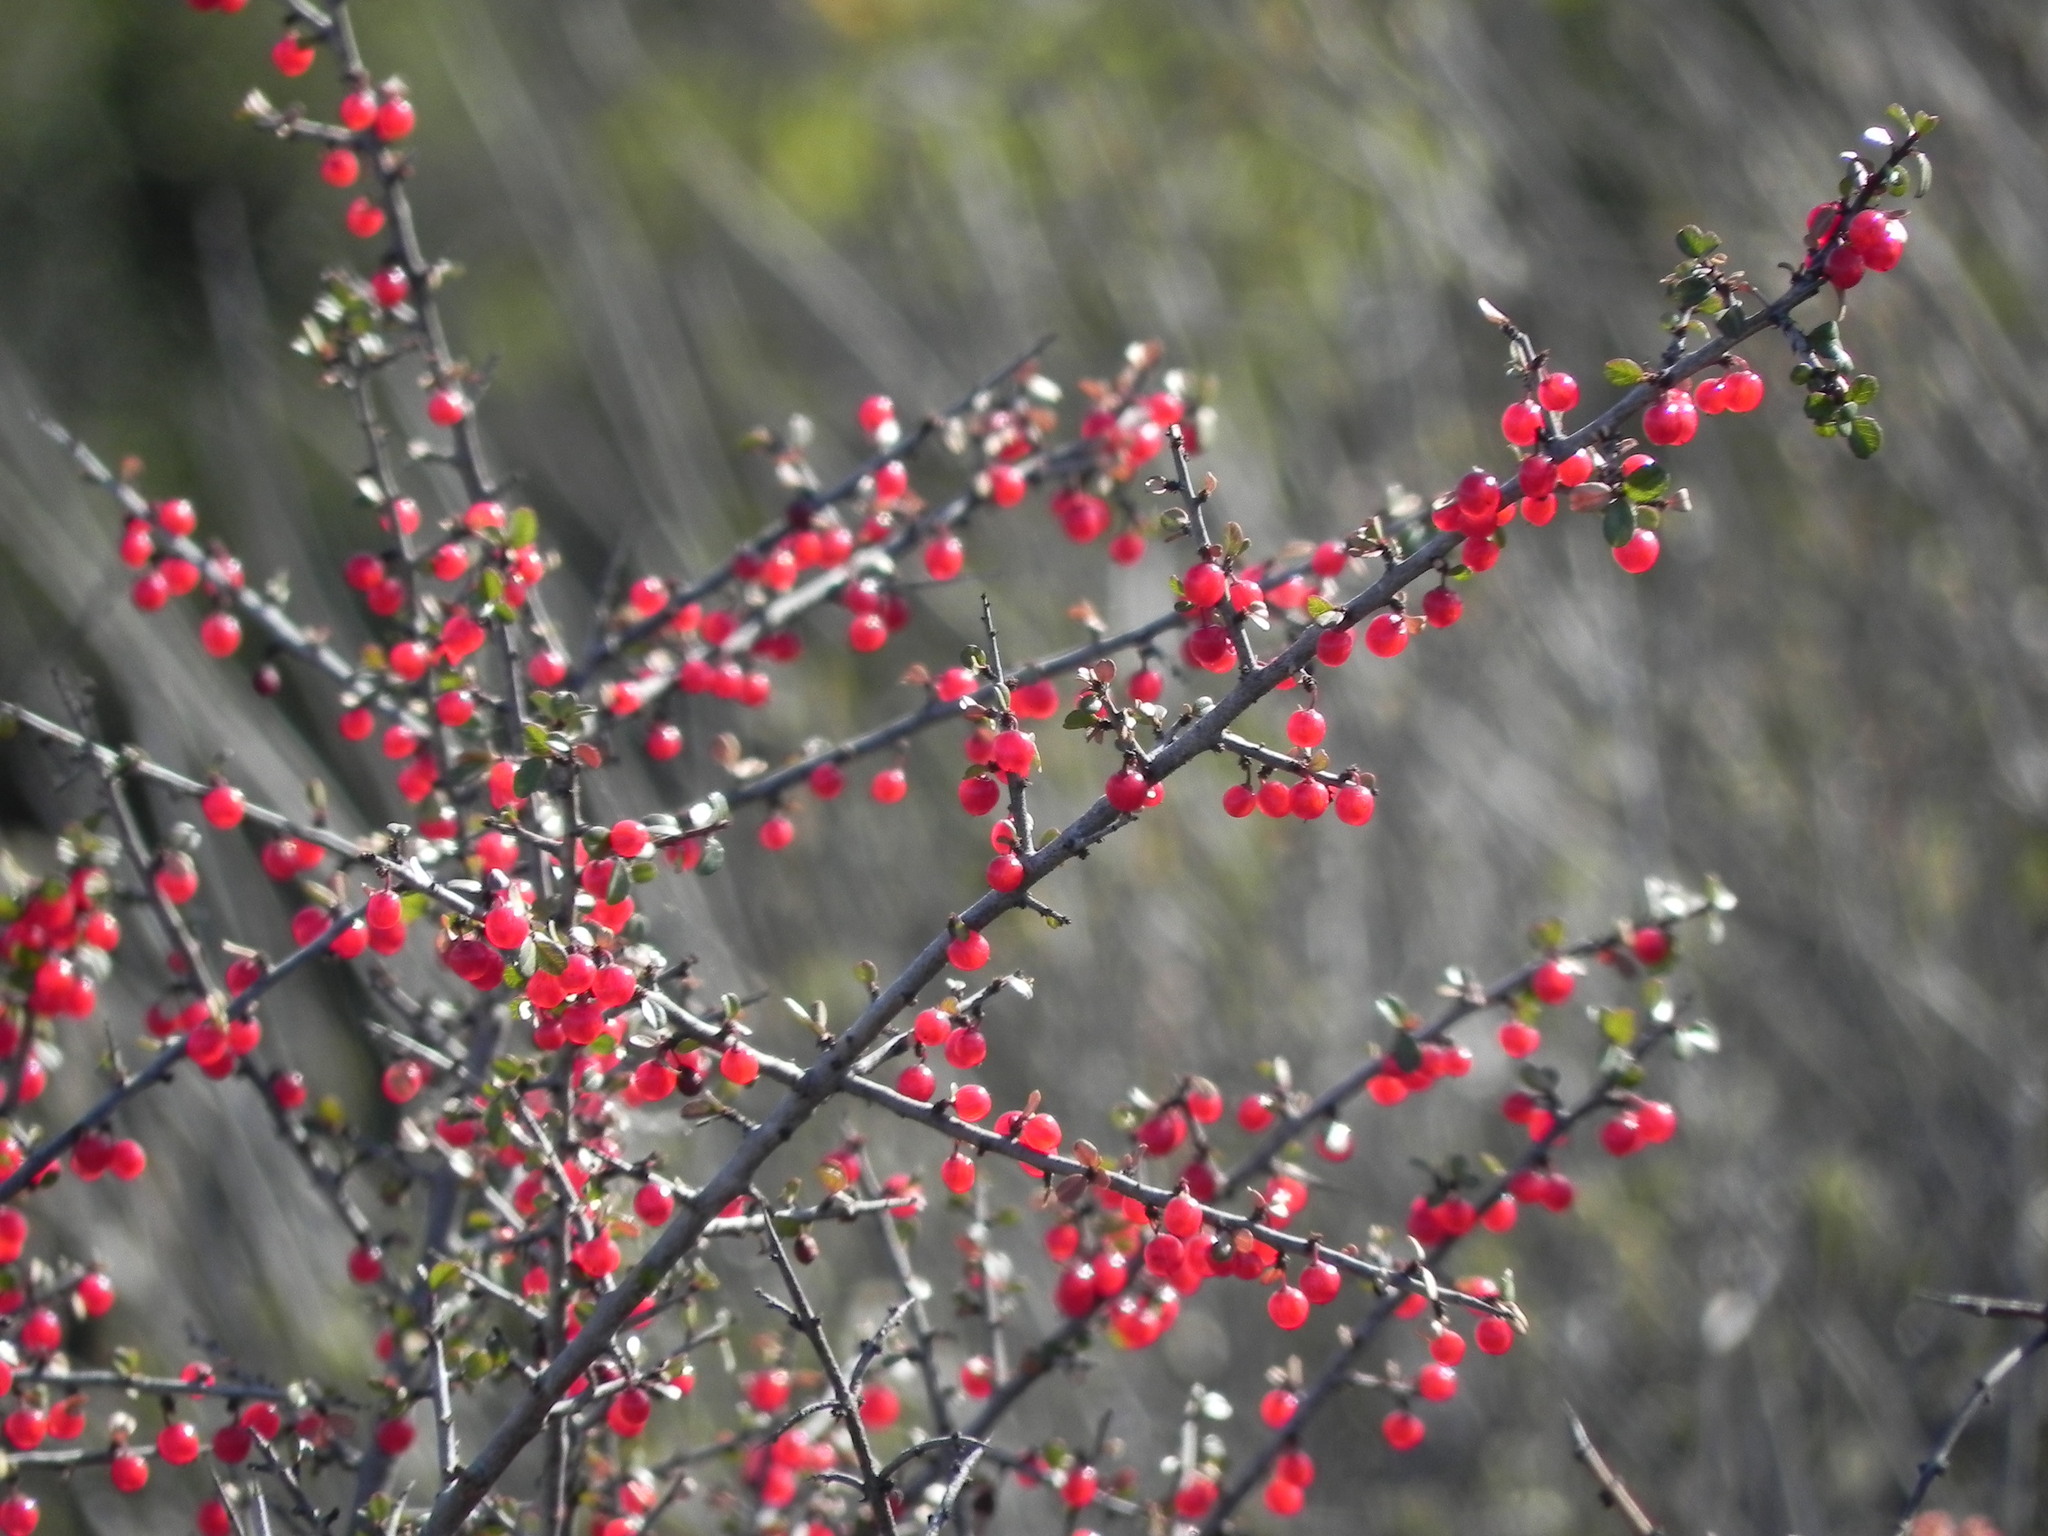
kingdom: Plantae
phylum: Tracheophyta
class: Magnoliopsida
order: Rosales
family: Rhamnaceae
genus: Endotropis
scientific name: Endotropis crocea
